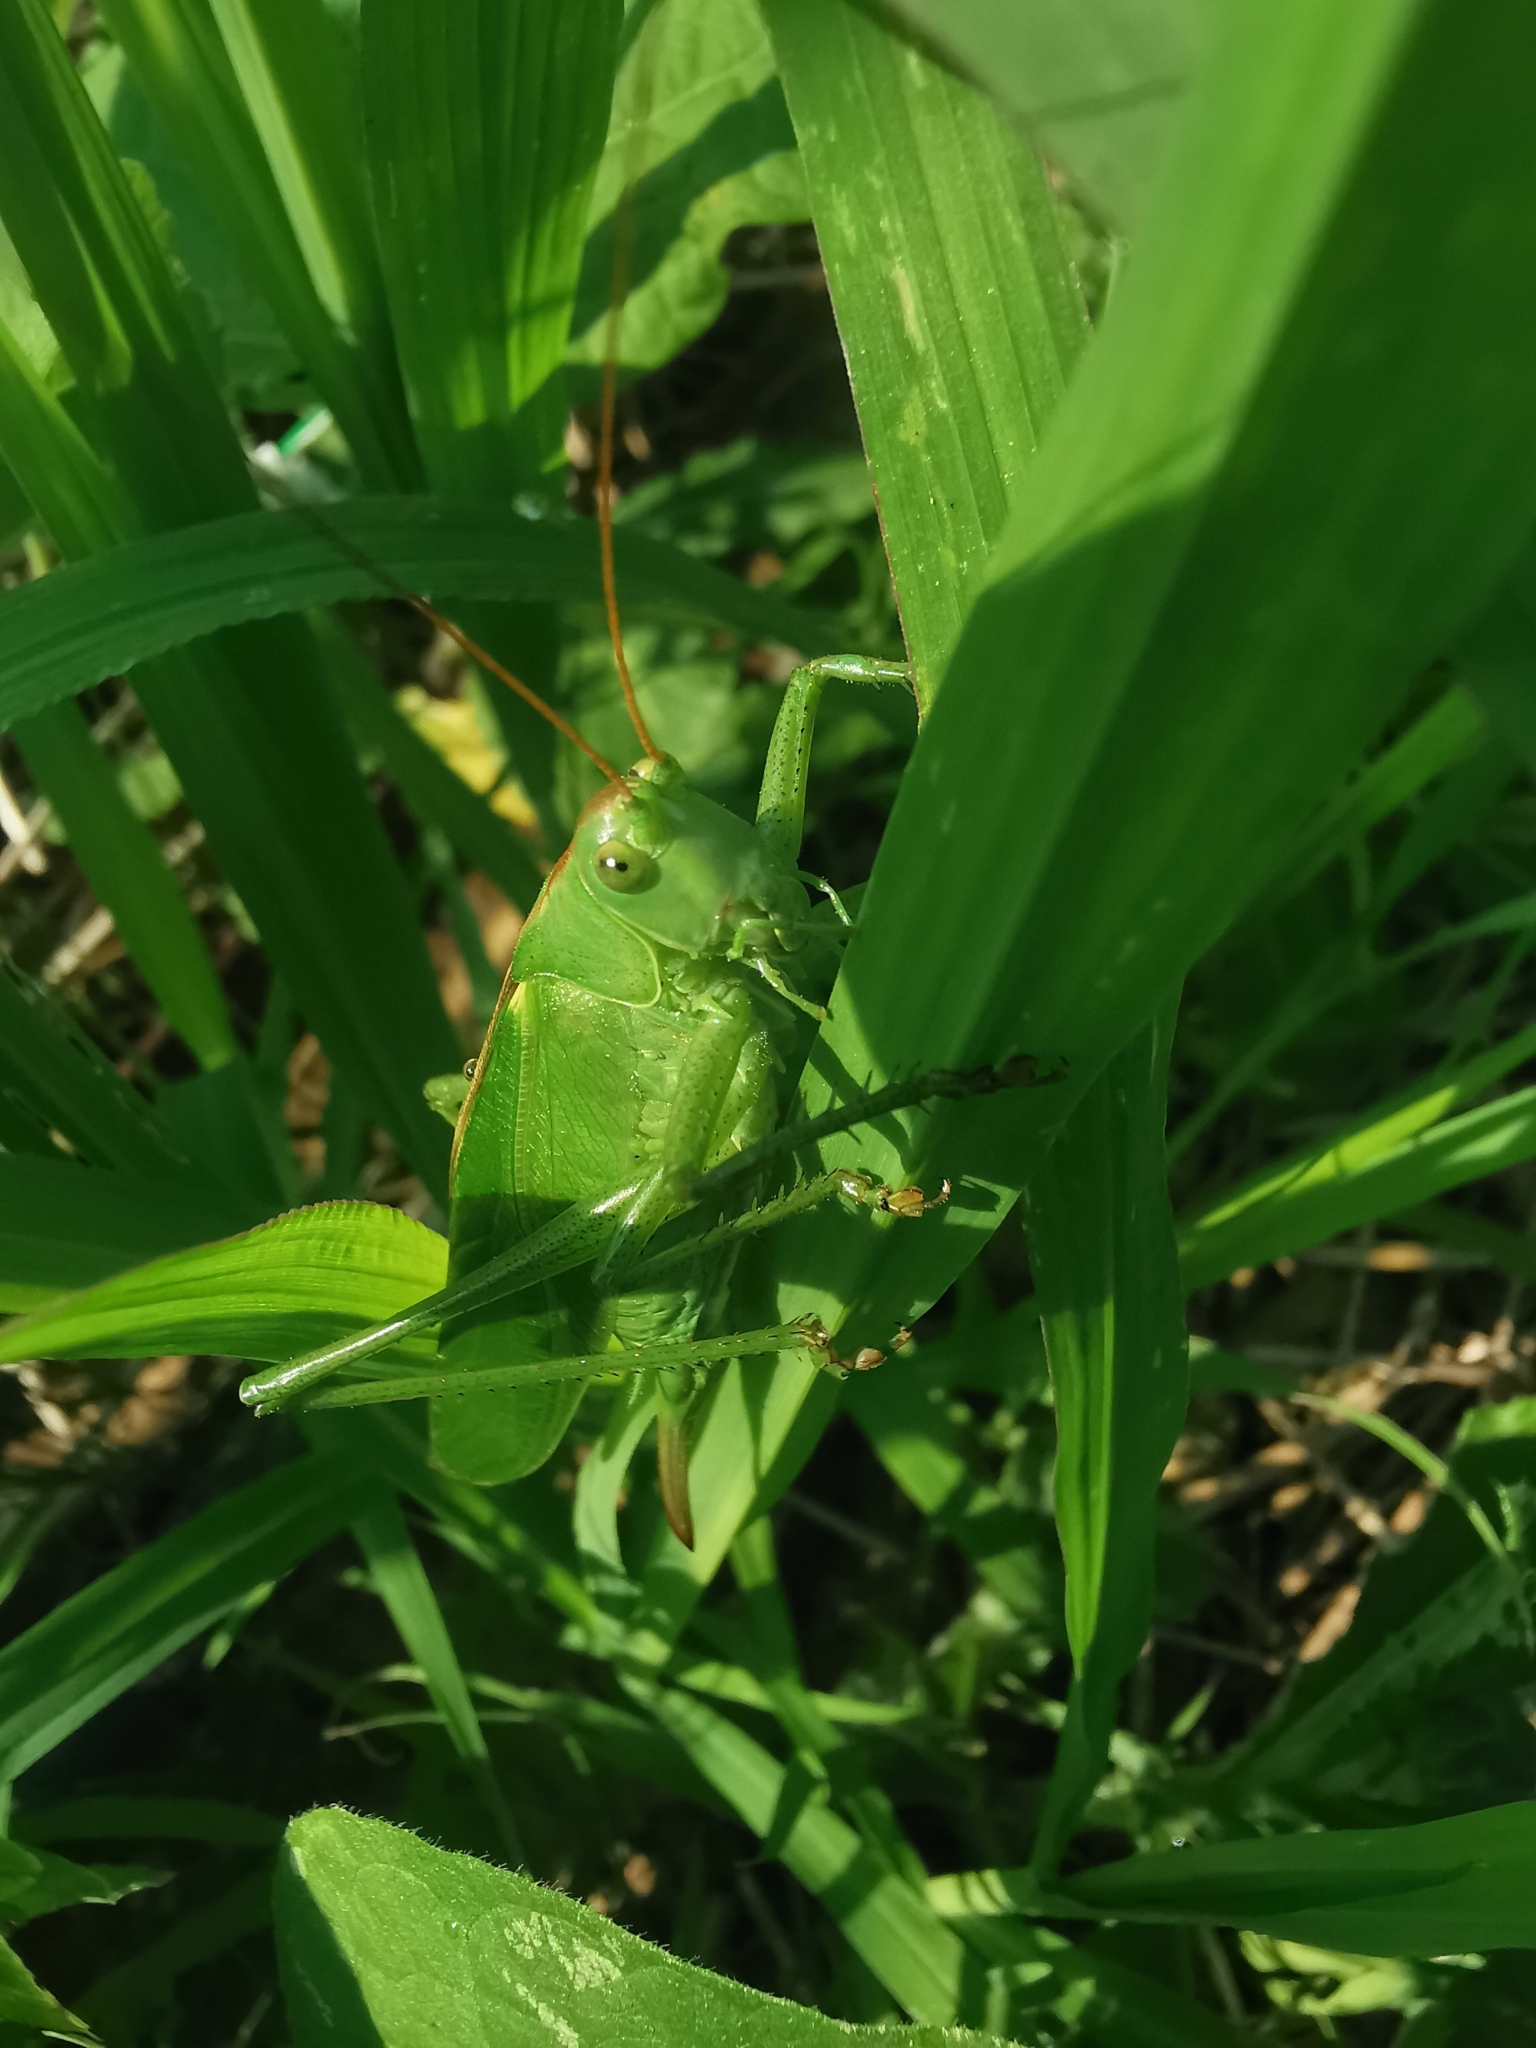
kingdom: Animalia
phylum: Arthropoda
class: Insecta
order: Orthoptera
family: Tettigoniidae
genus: Tettigonia
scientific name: Tettigonia viridissima
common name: Great green bush-cricket
